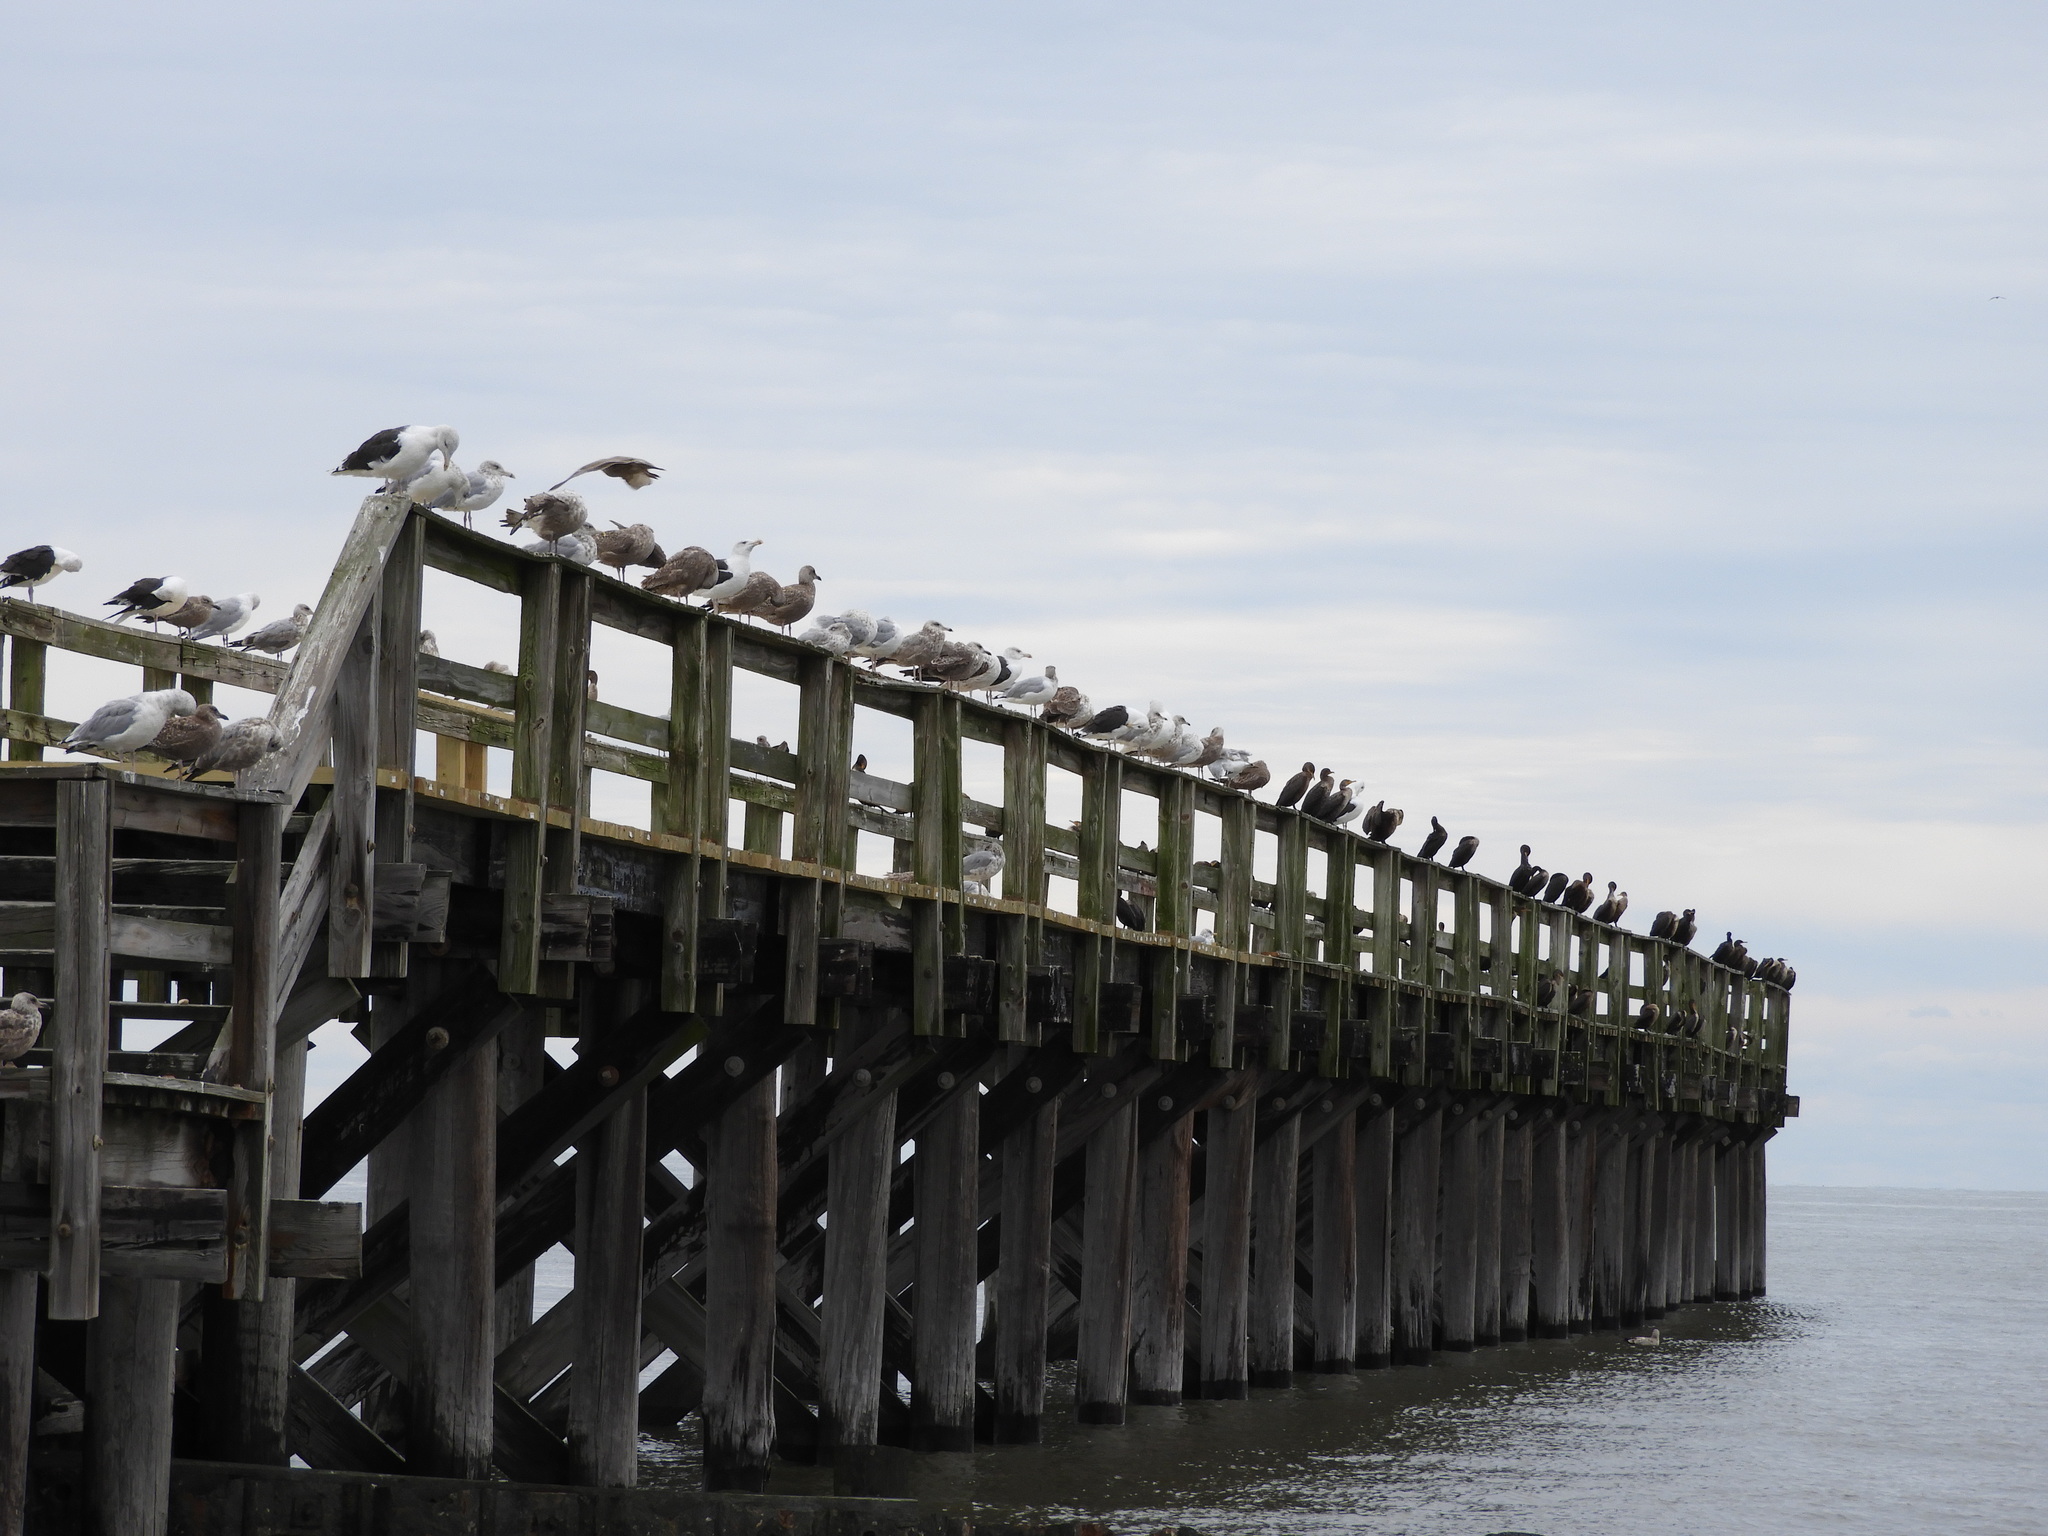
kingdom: Animalia
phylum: Chordata
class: Aves
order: Suliformes
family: Phalacrocoracidae
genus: Phalacrocorax
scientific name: Phalacrocorax auritus
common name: Double-crested cormorant
